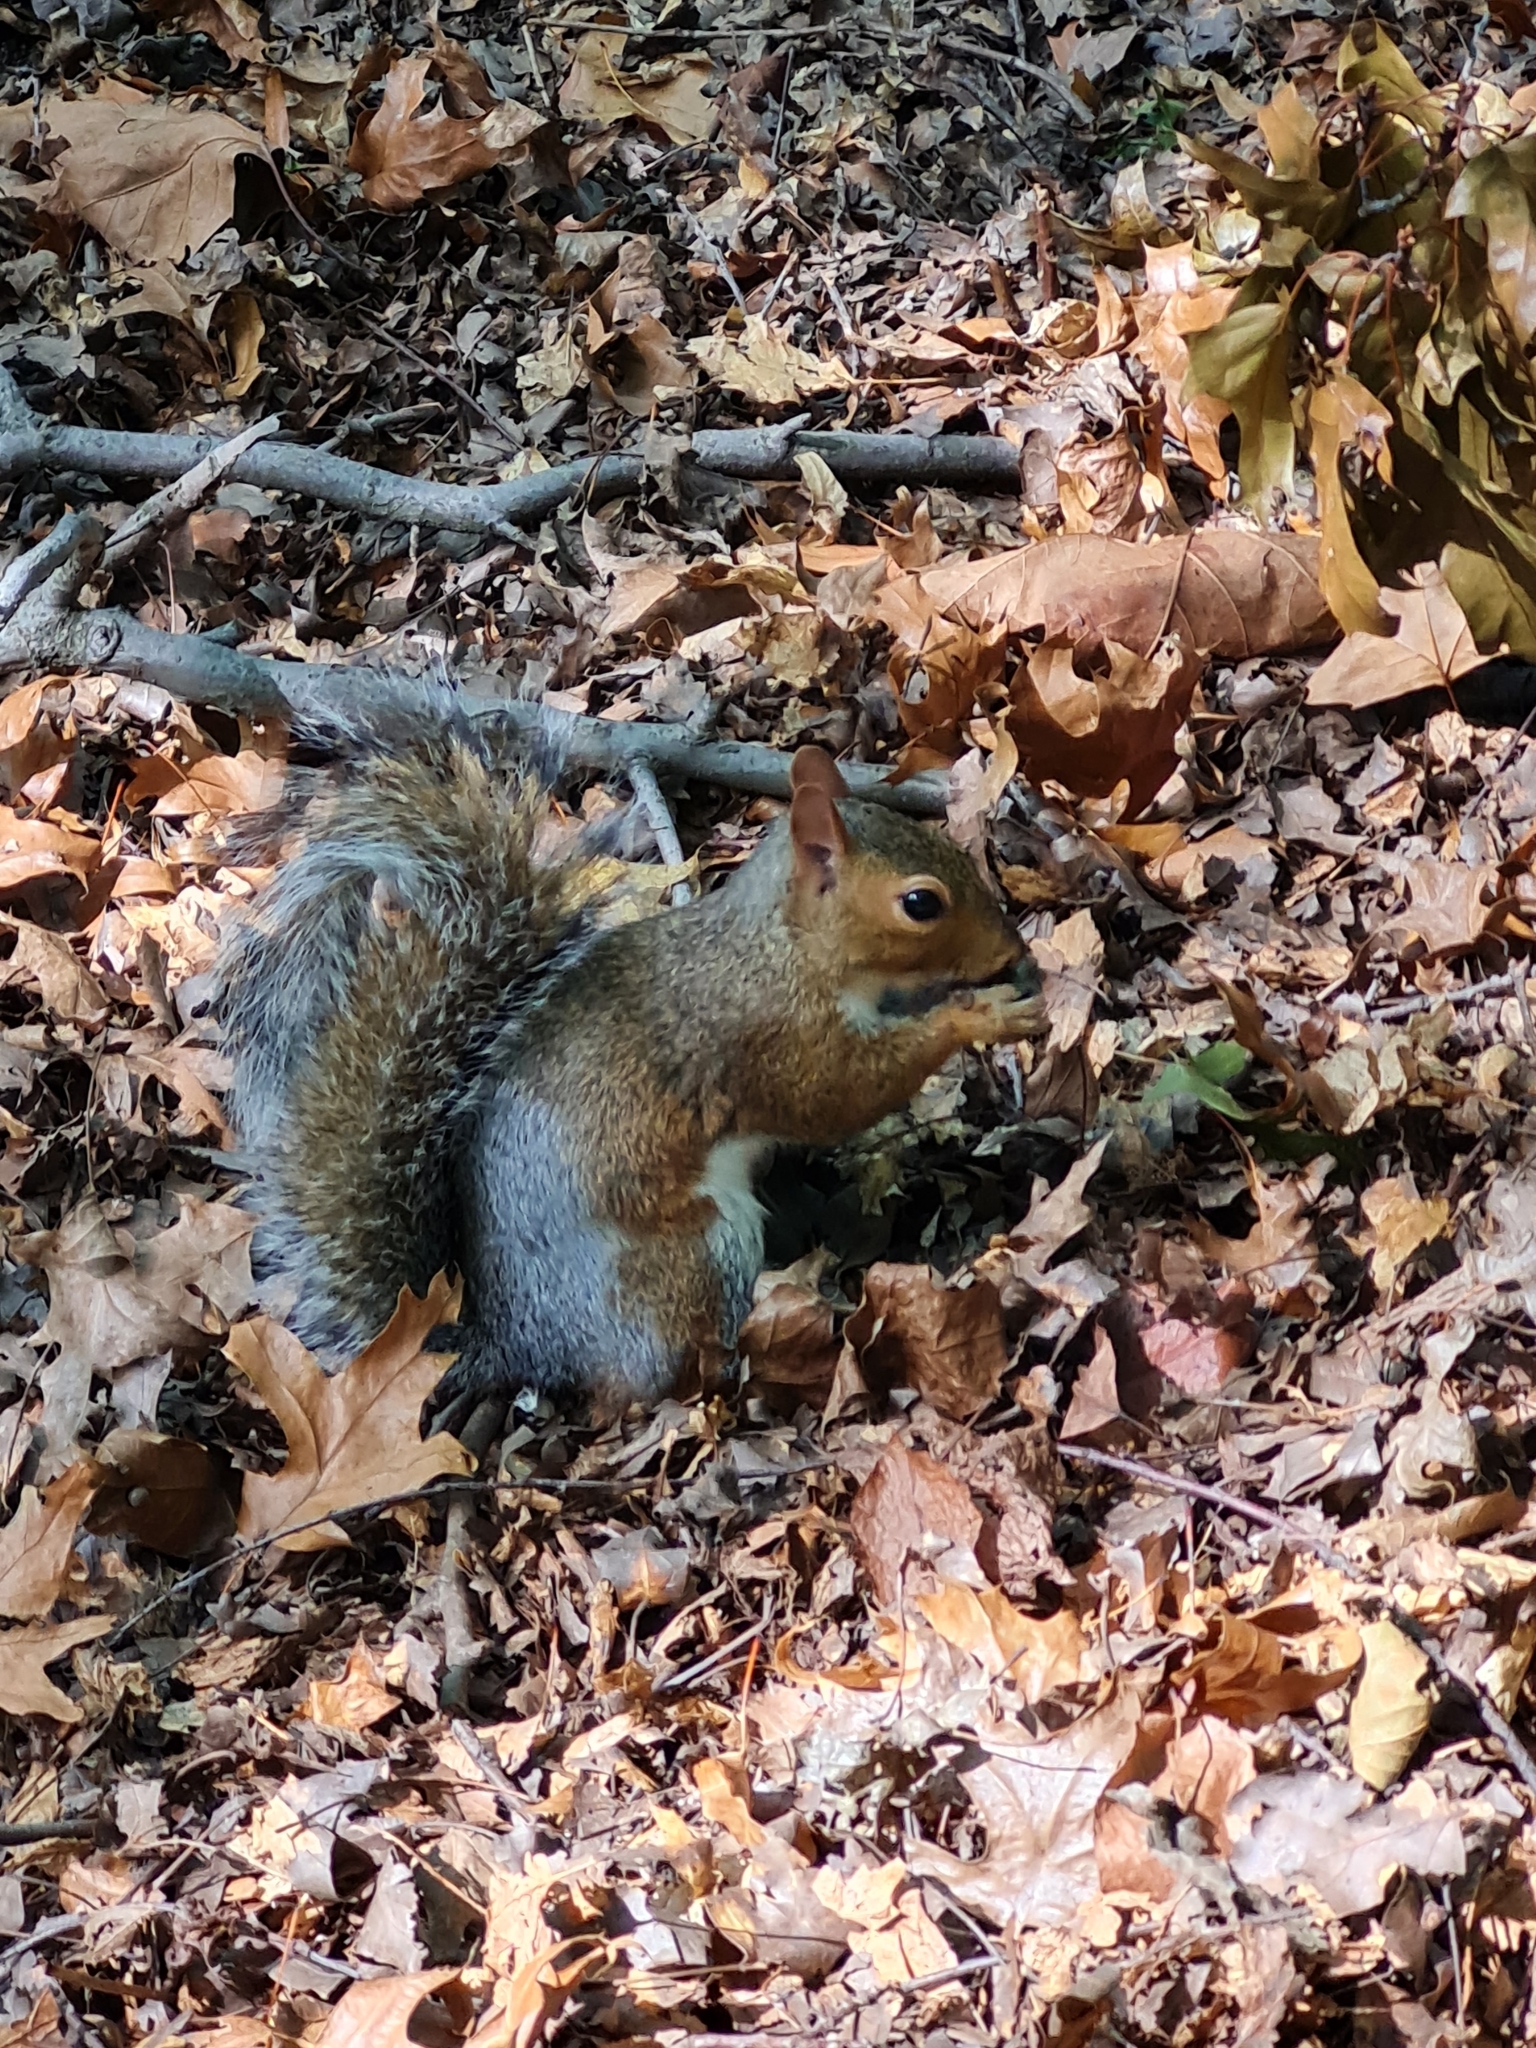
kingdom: Animalia
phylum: Chordata
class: Mammalia
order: Rodentia
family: Sciuridae
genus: Sciurus
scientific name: Sciurus carolinensis
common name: Eastern gray squirrel
